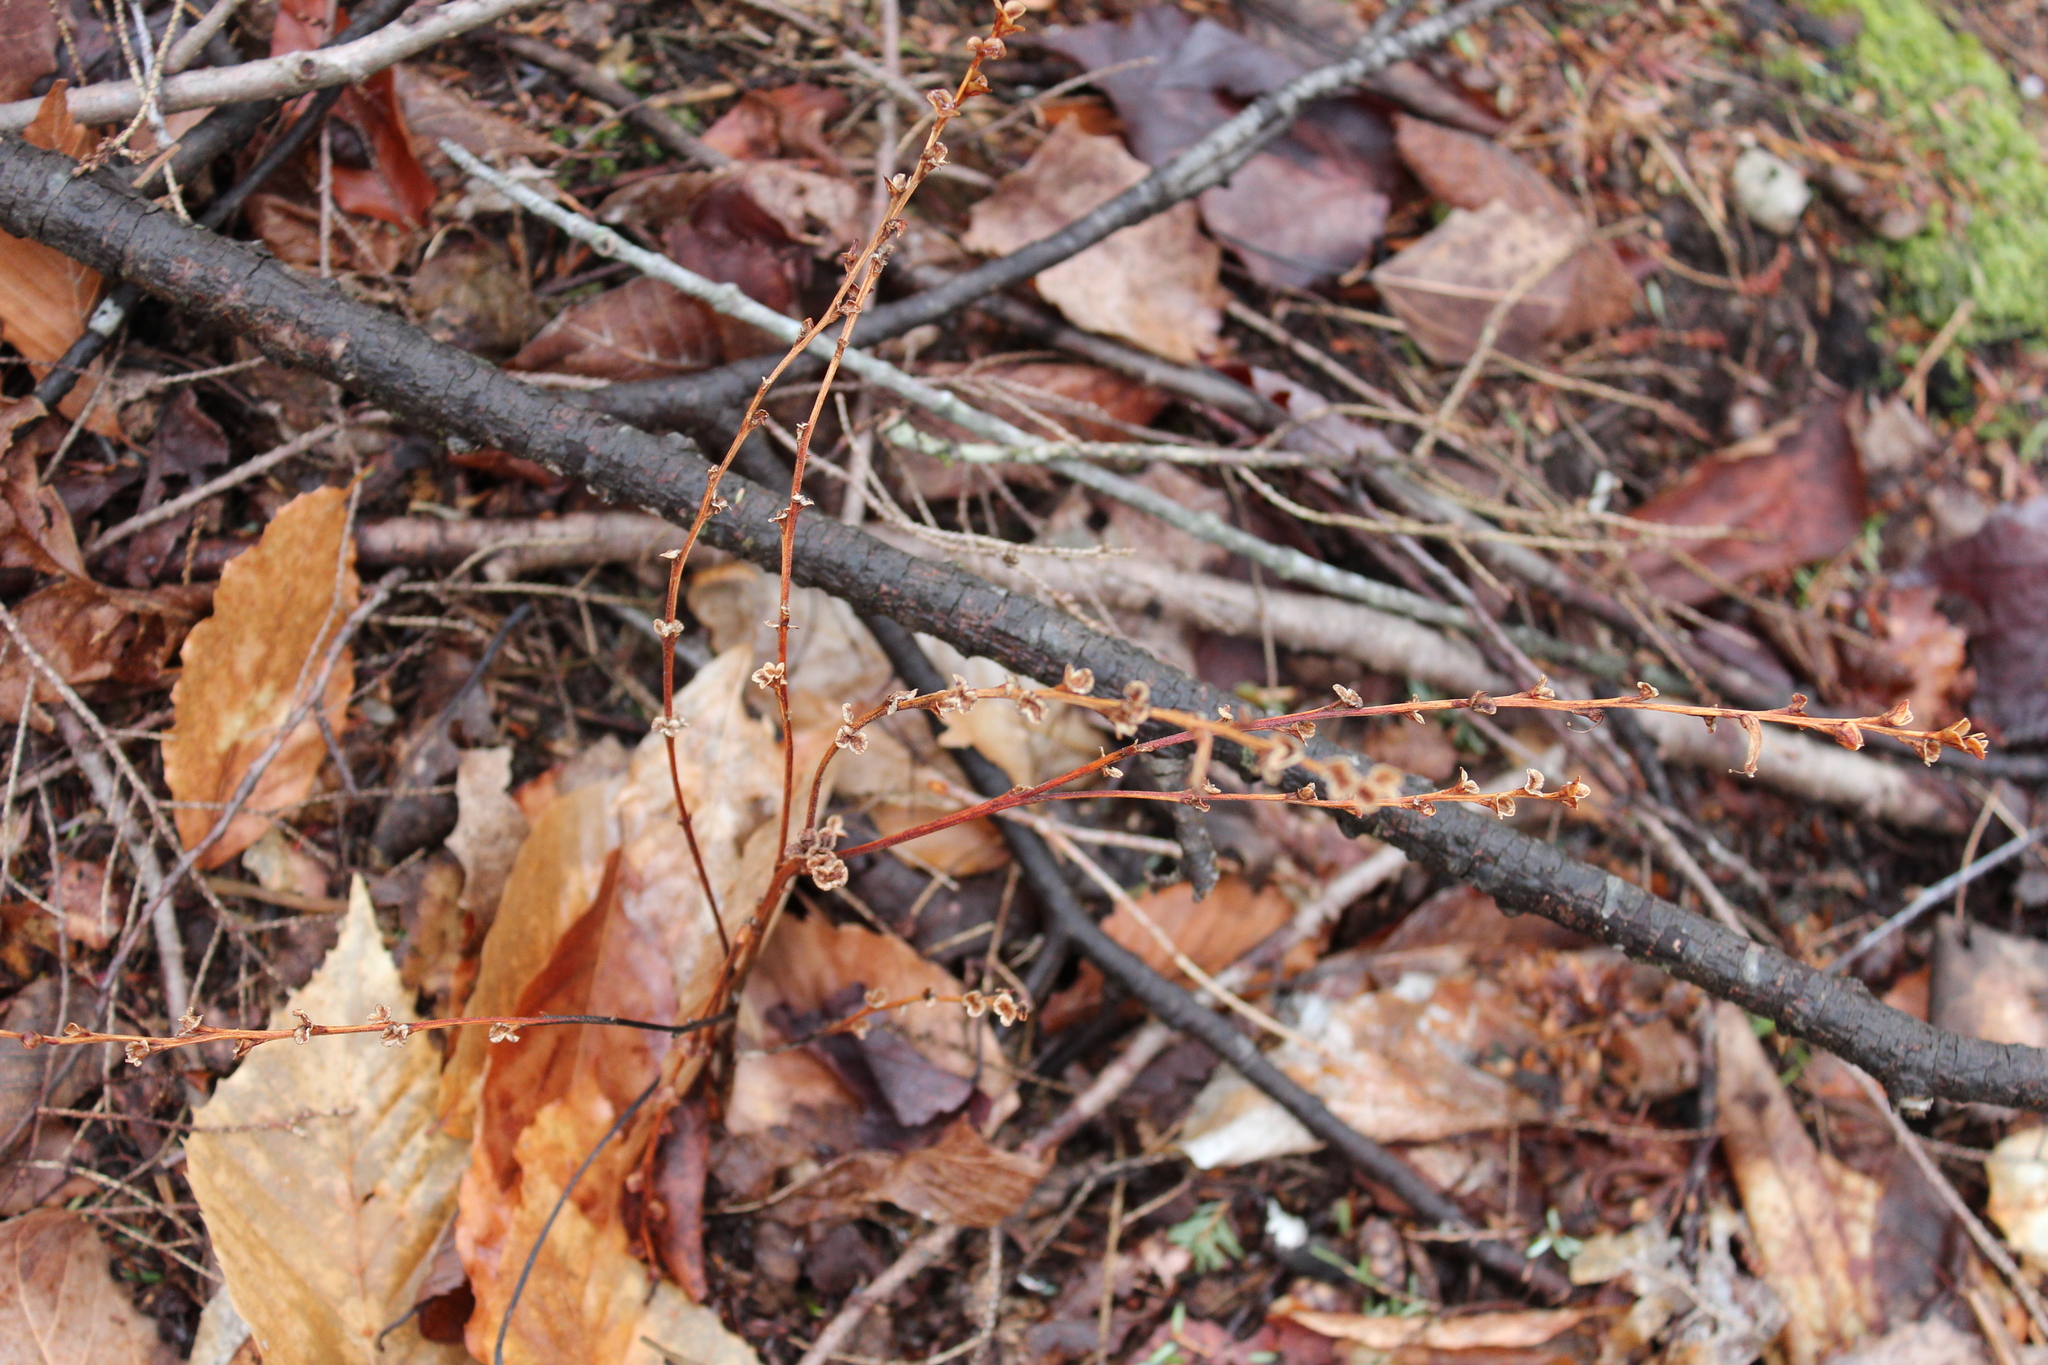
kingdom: Plantae
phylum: Tracheophyta
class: Magnoliopsida
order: Lamiales
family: Orobanchaceae
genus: Epifagus
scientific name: Epifagus virginiana
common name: Beechdrops
